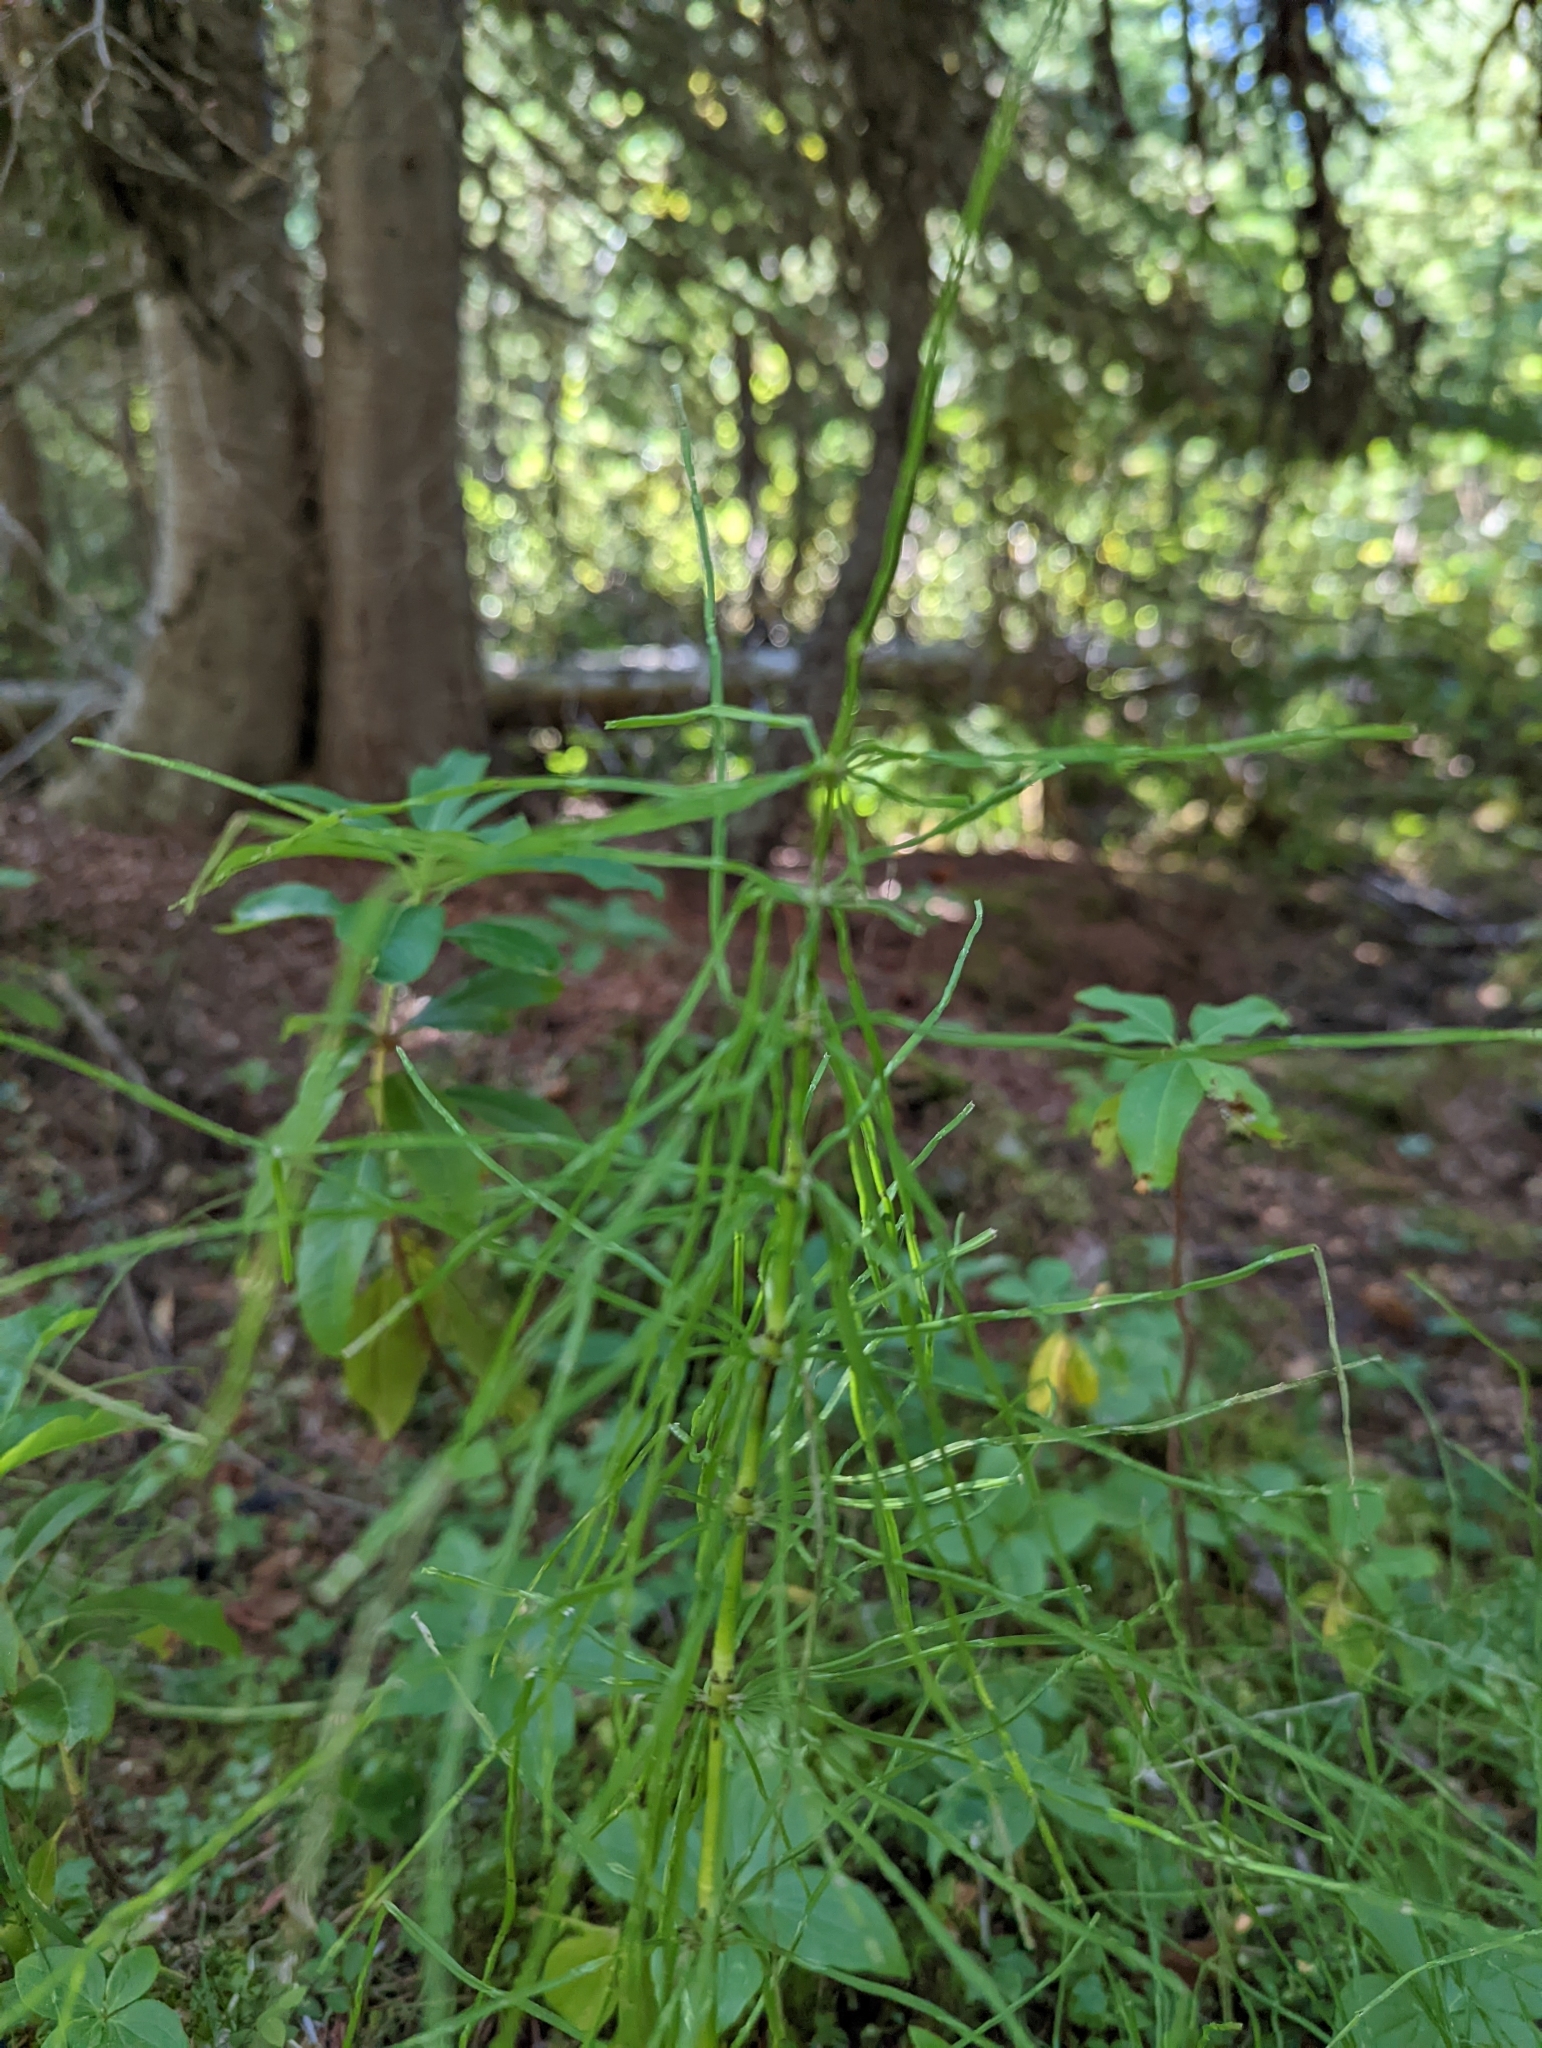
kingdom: Plantae
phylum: Tracheophyta
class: Polypodiopsida
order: Equisetales
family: Equisetaceae
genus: Equisetum
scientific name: Equisetum arvense
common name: Field horsetail
